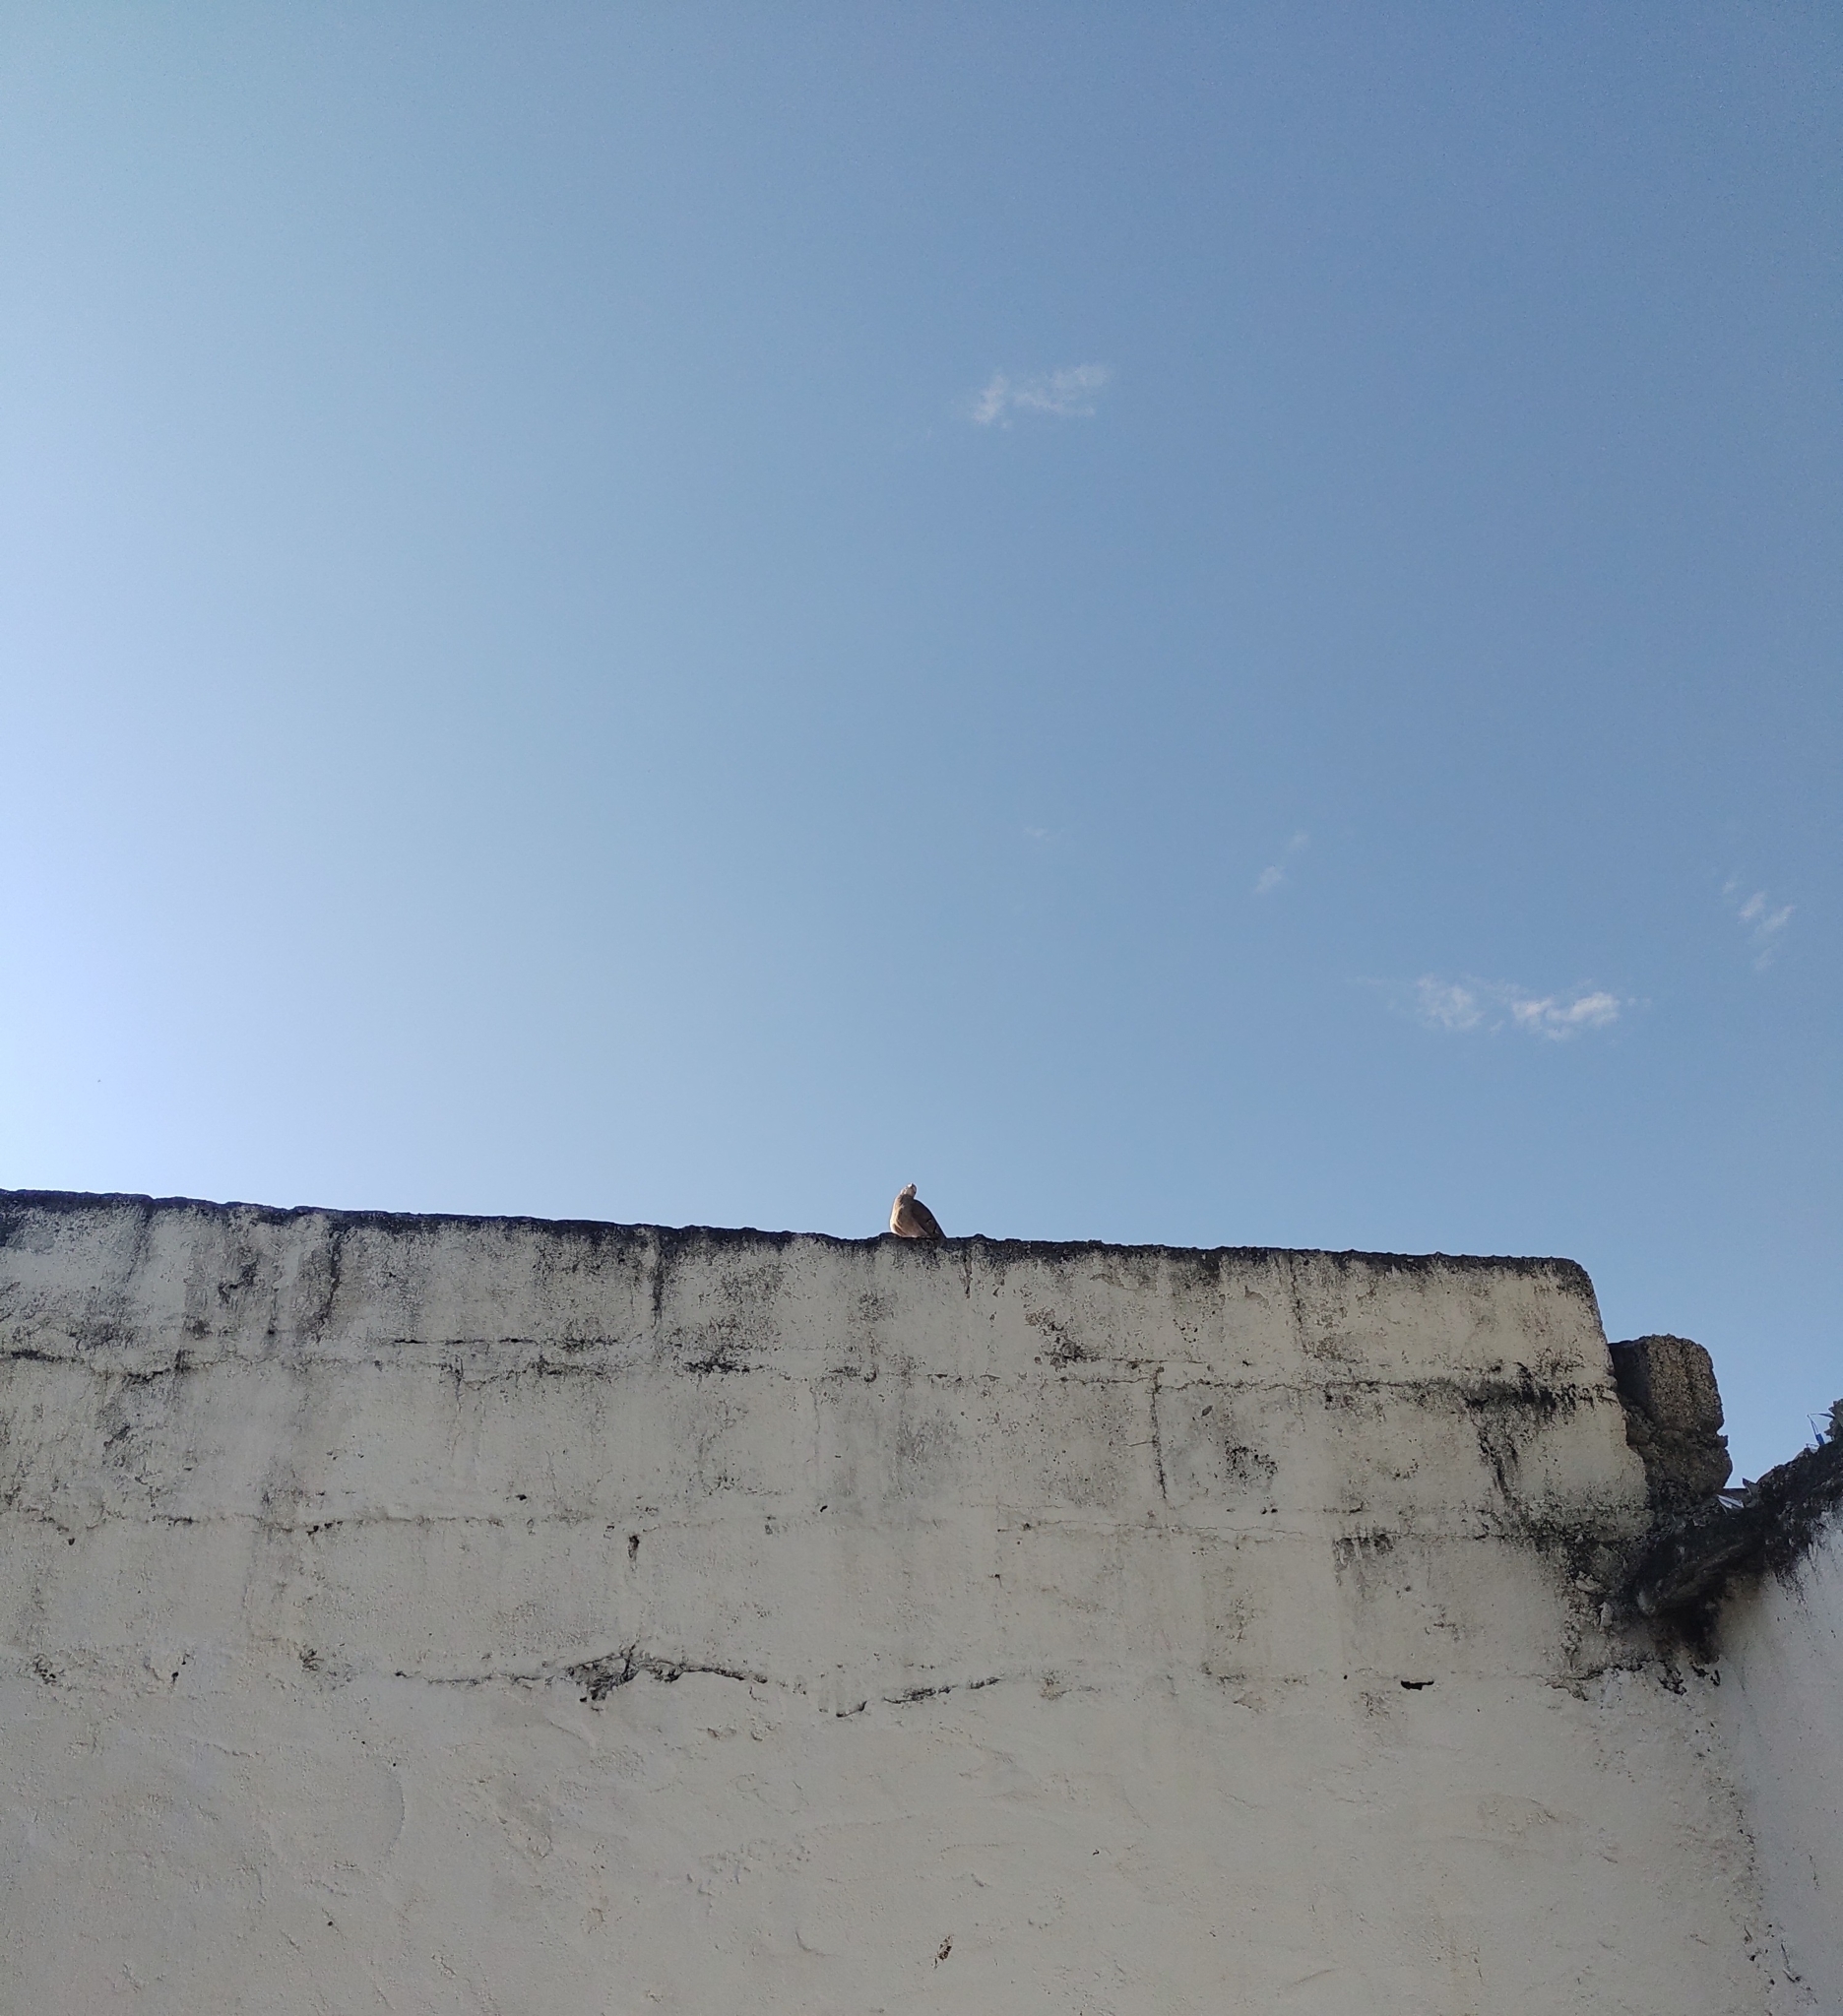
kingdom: Animalia
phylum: Chordata
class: Aves
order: Columbiformes
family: Columbidae
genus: Columbina
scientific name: Columbina talpacoti
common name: Ruddy ground dove
